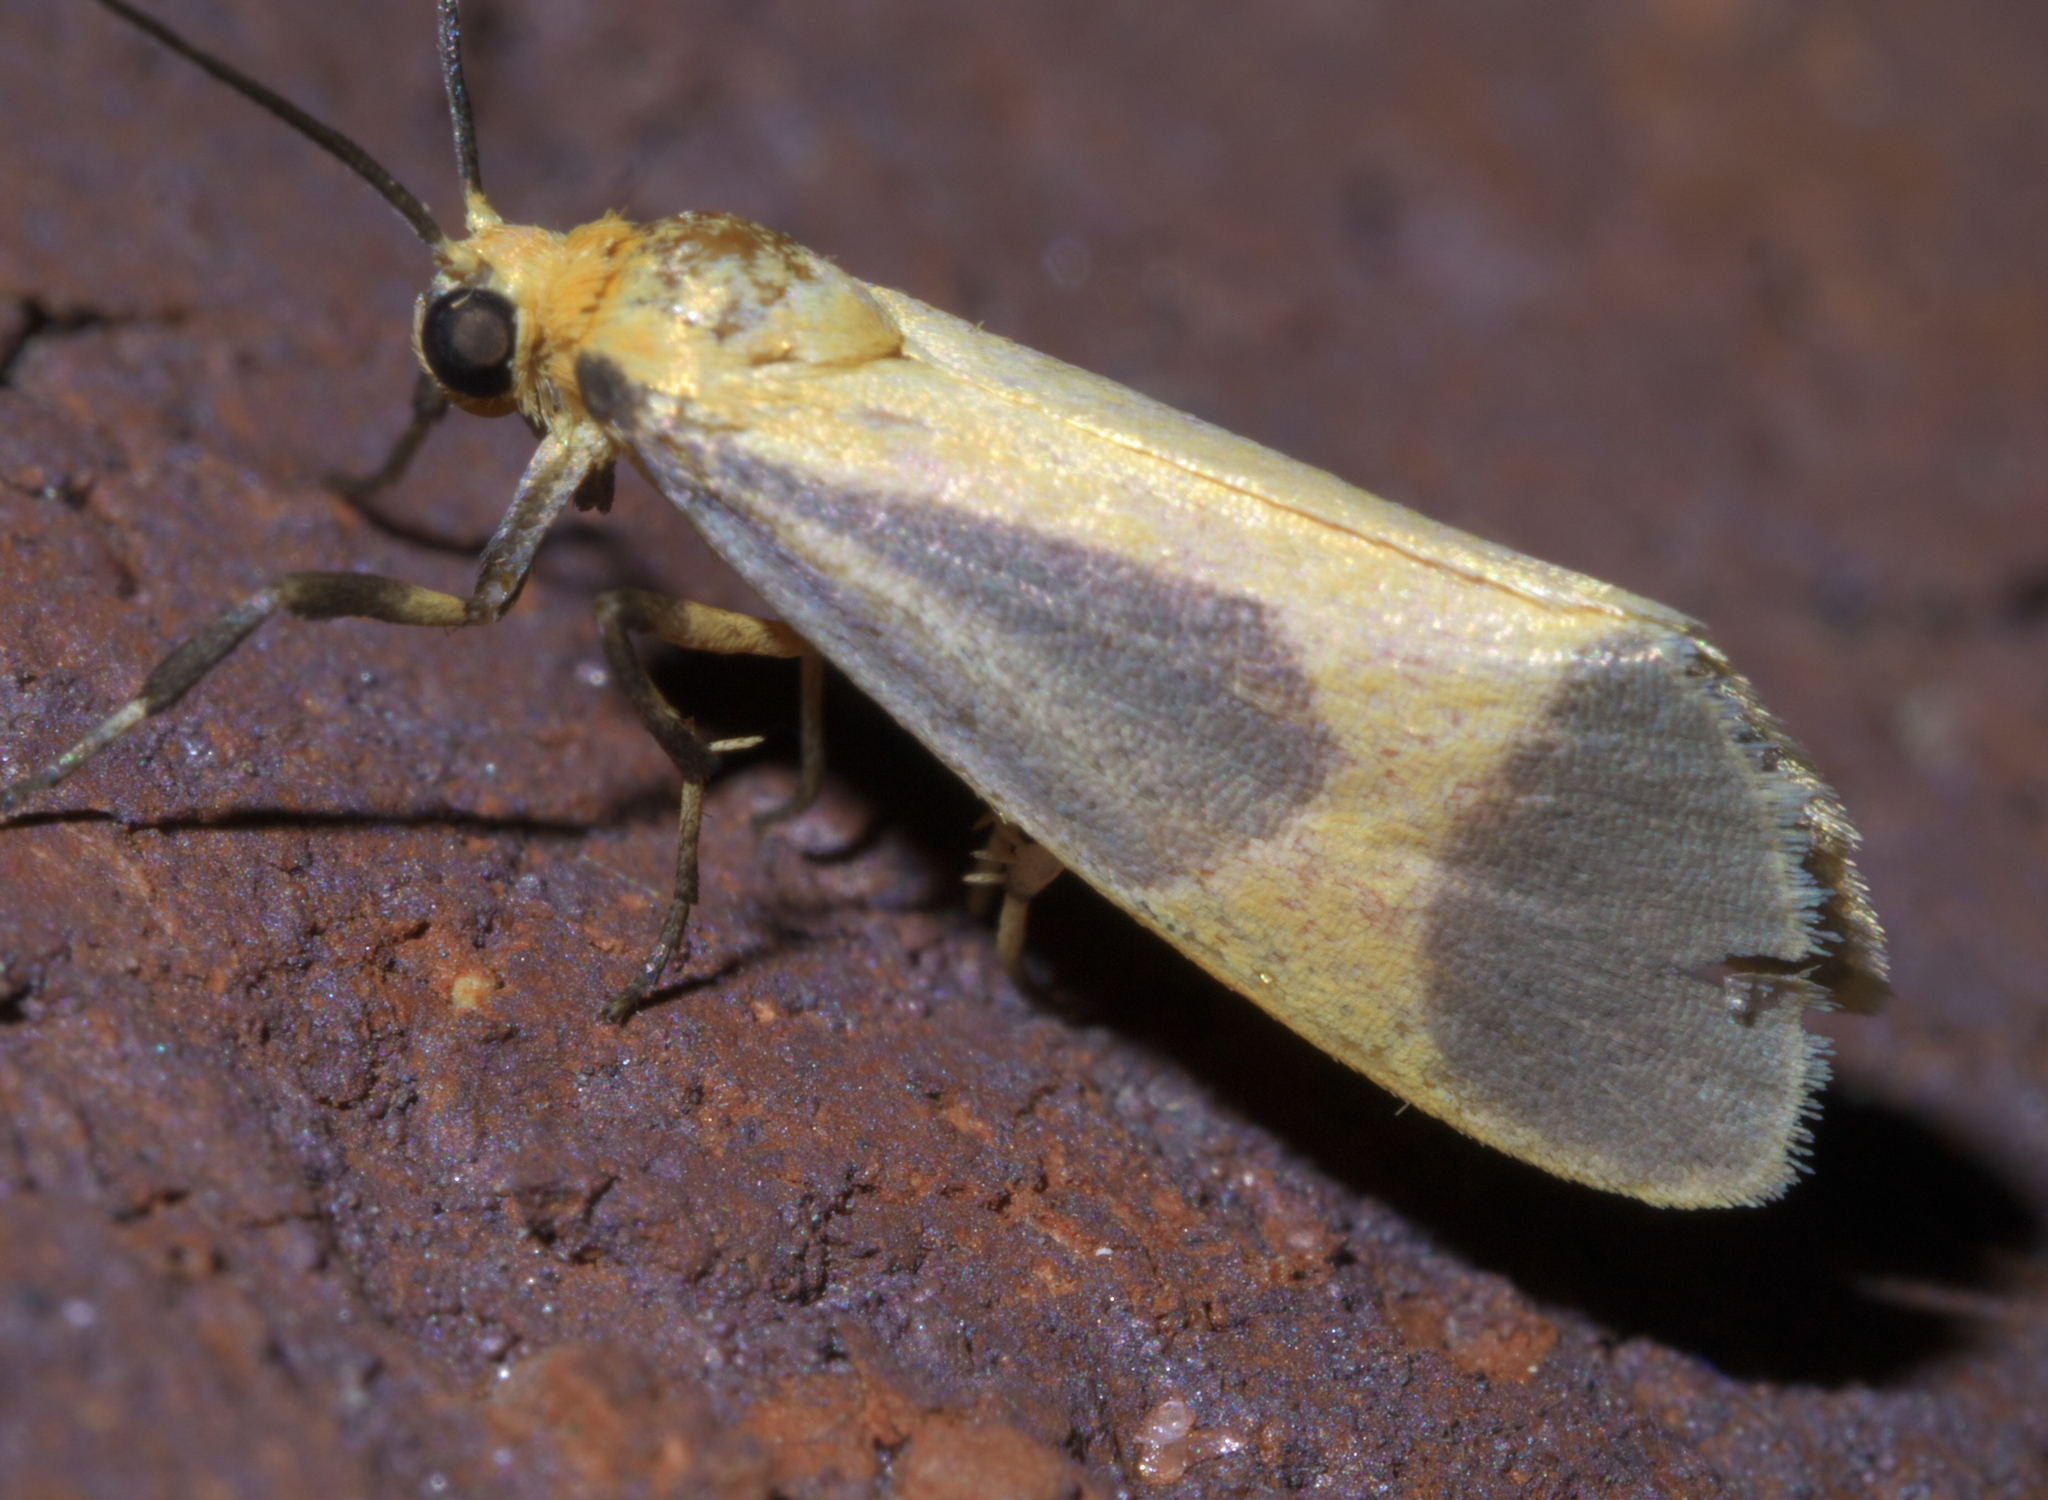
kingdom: Animalia
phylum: Arthropoda
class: Insecta
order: Lepidoptera
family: Erebidae
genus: Cisthene
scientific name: Cisthene picta
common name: Pictured lichen moth
